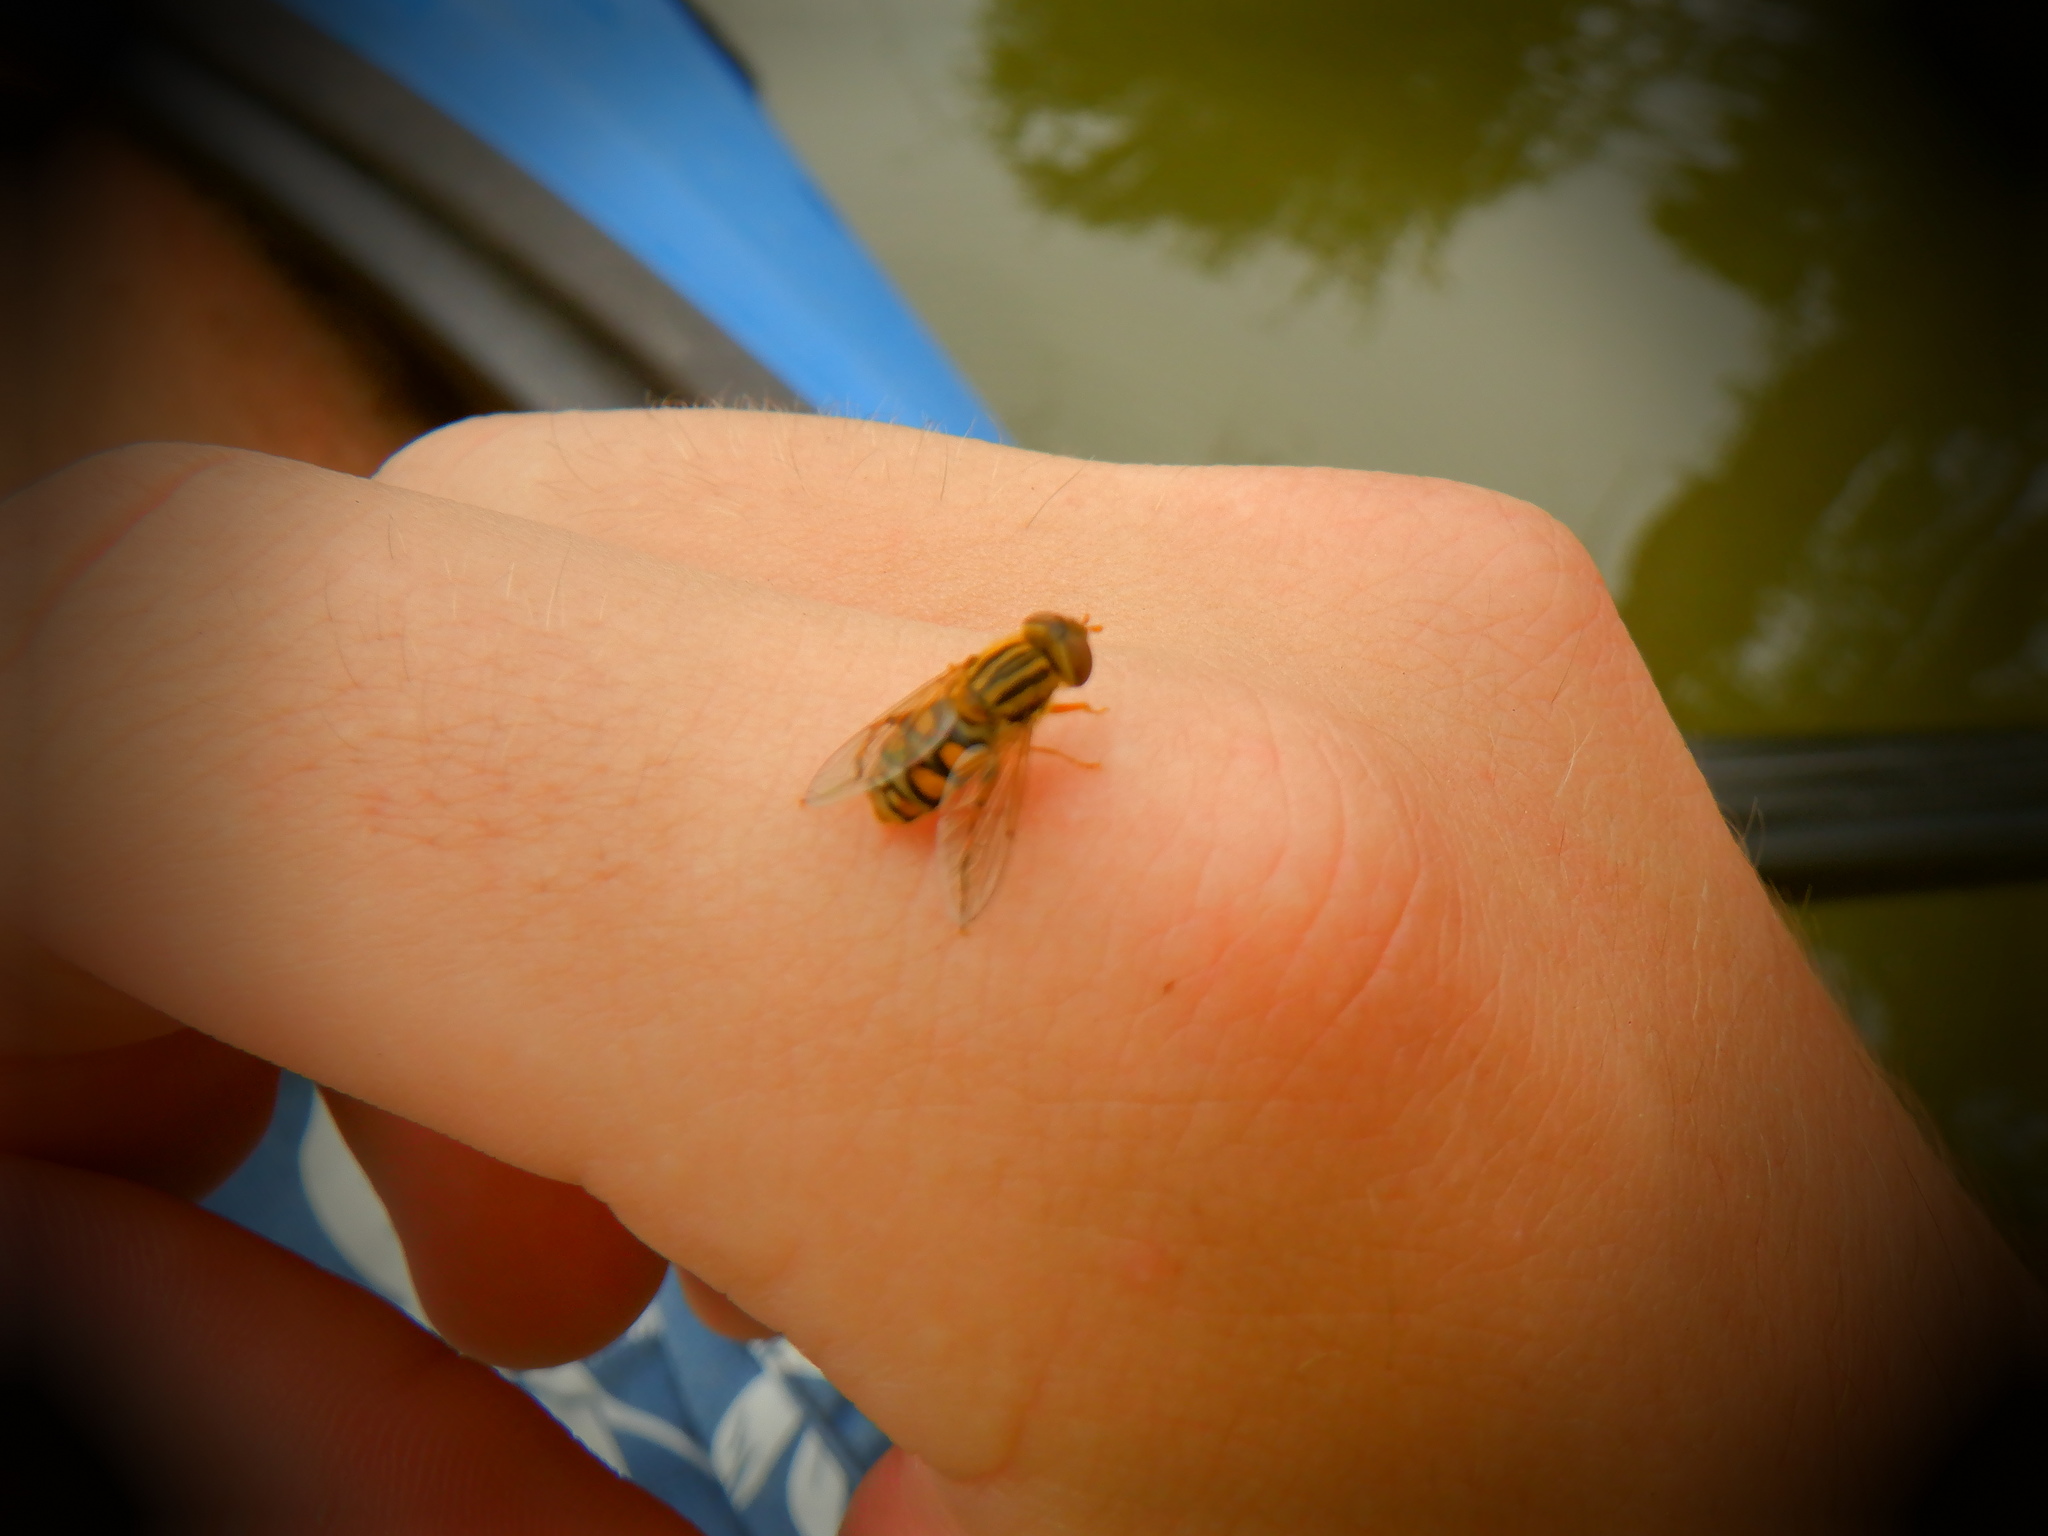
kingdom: Animalia
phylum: Arthropoda
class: Insecta
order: Diptera
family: Syrphidae
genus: Parhelophilus
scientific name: Parhelophilus laetus
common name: Common bog fly
